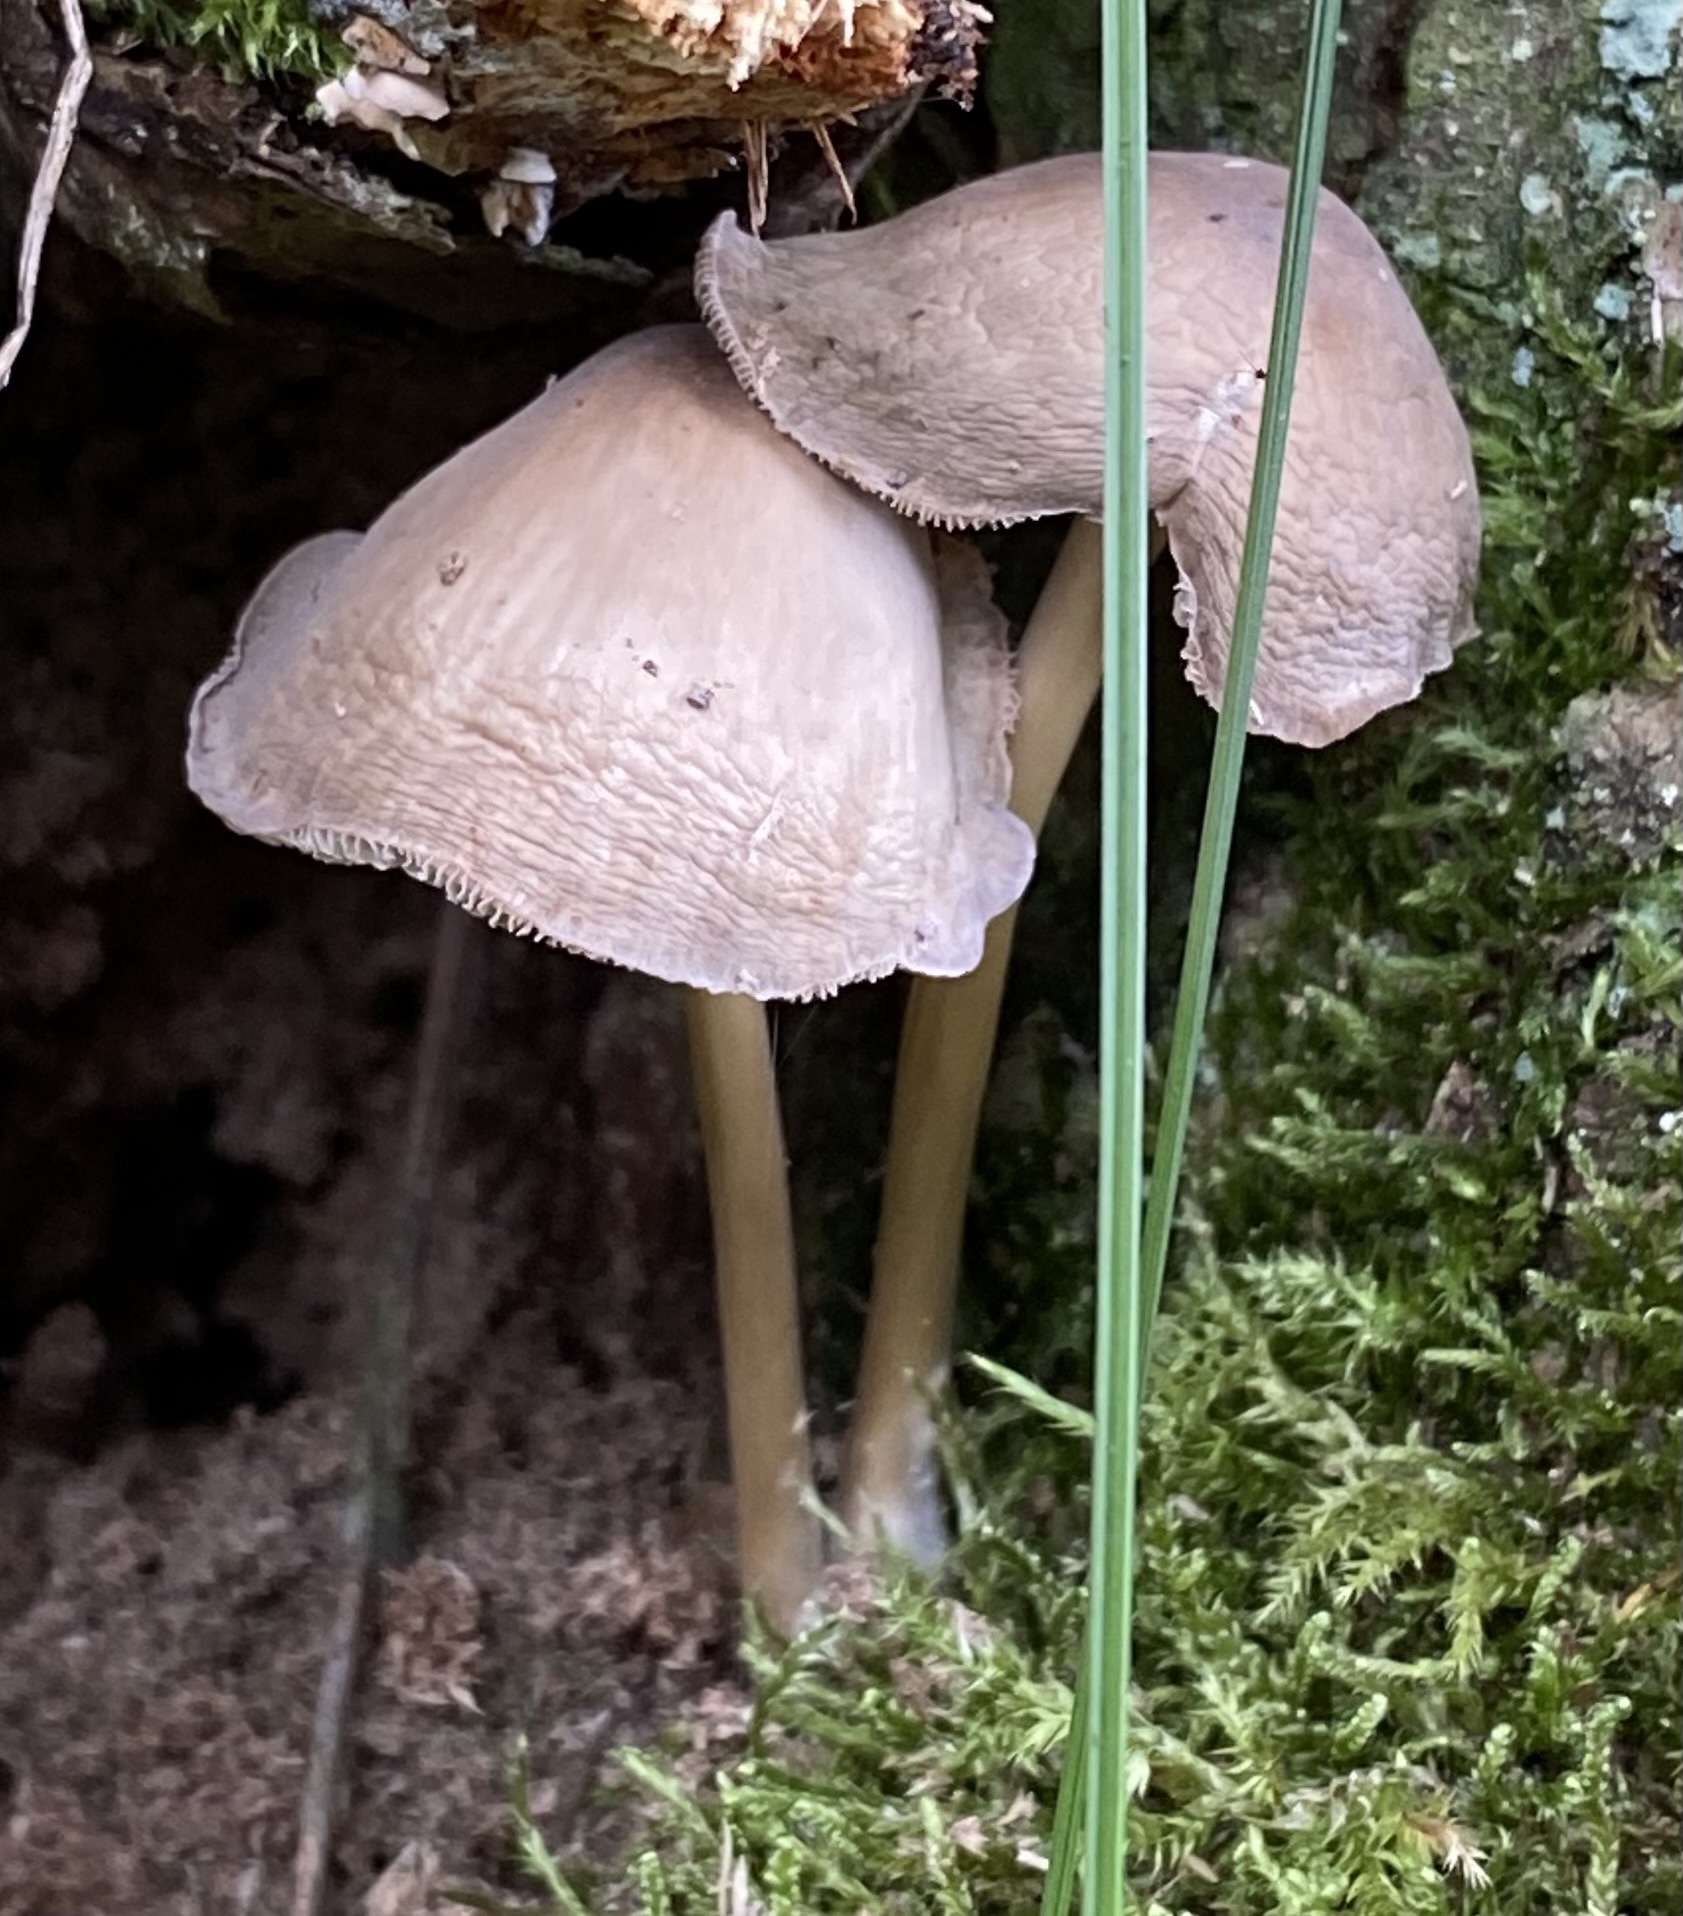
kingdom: Fungi
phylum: Basidiomycota
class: Agaricomycetes
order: Agaricales
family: Mycenaceae
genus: Mycena
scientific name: Mycena galericulata
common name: Bonnet mycena
